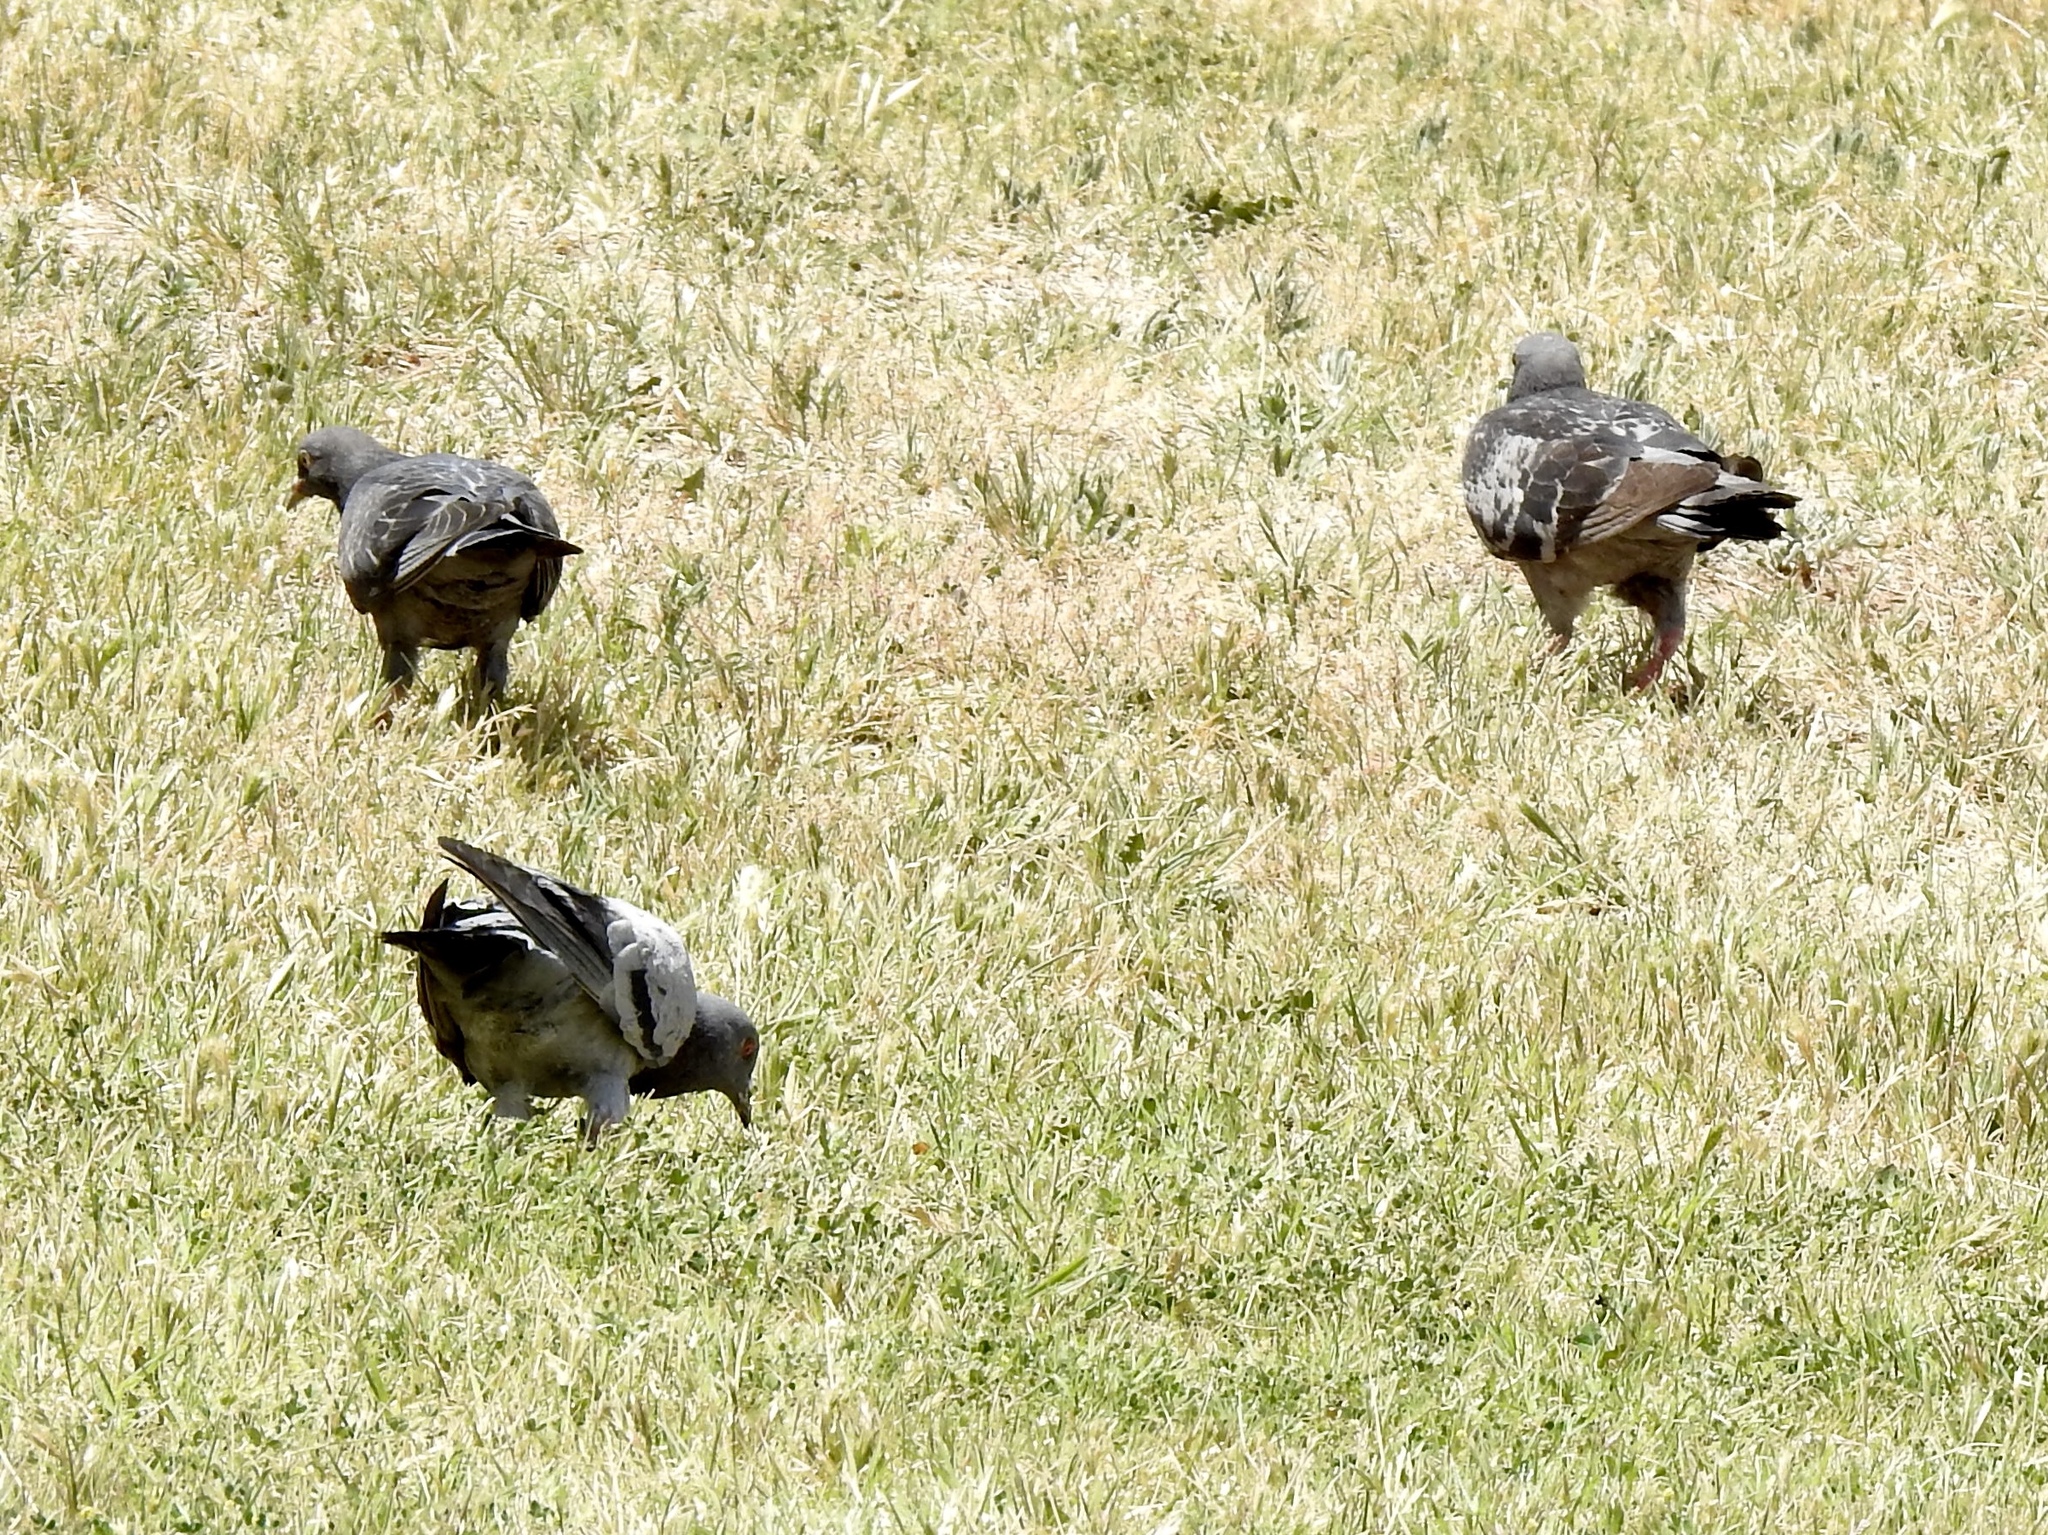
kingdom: Animalia
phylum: Chordata
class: Aves
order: Columbiformes
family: Columbidae
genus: Columba
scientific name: Columba livia
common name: Rock pigeon
